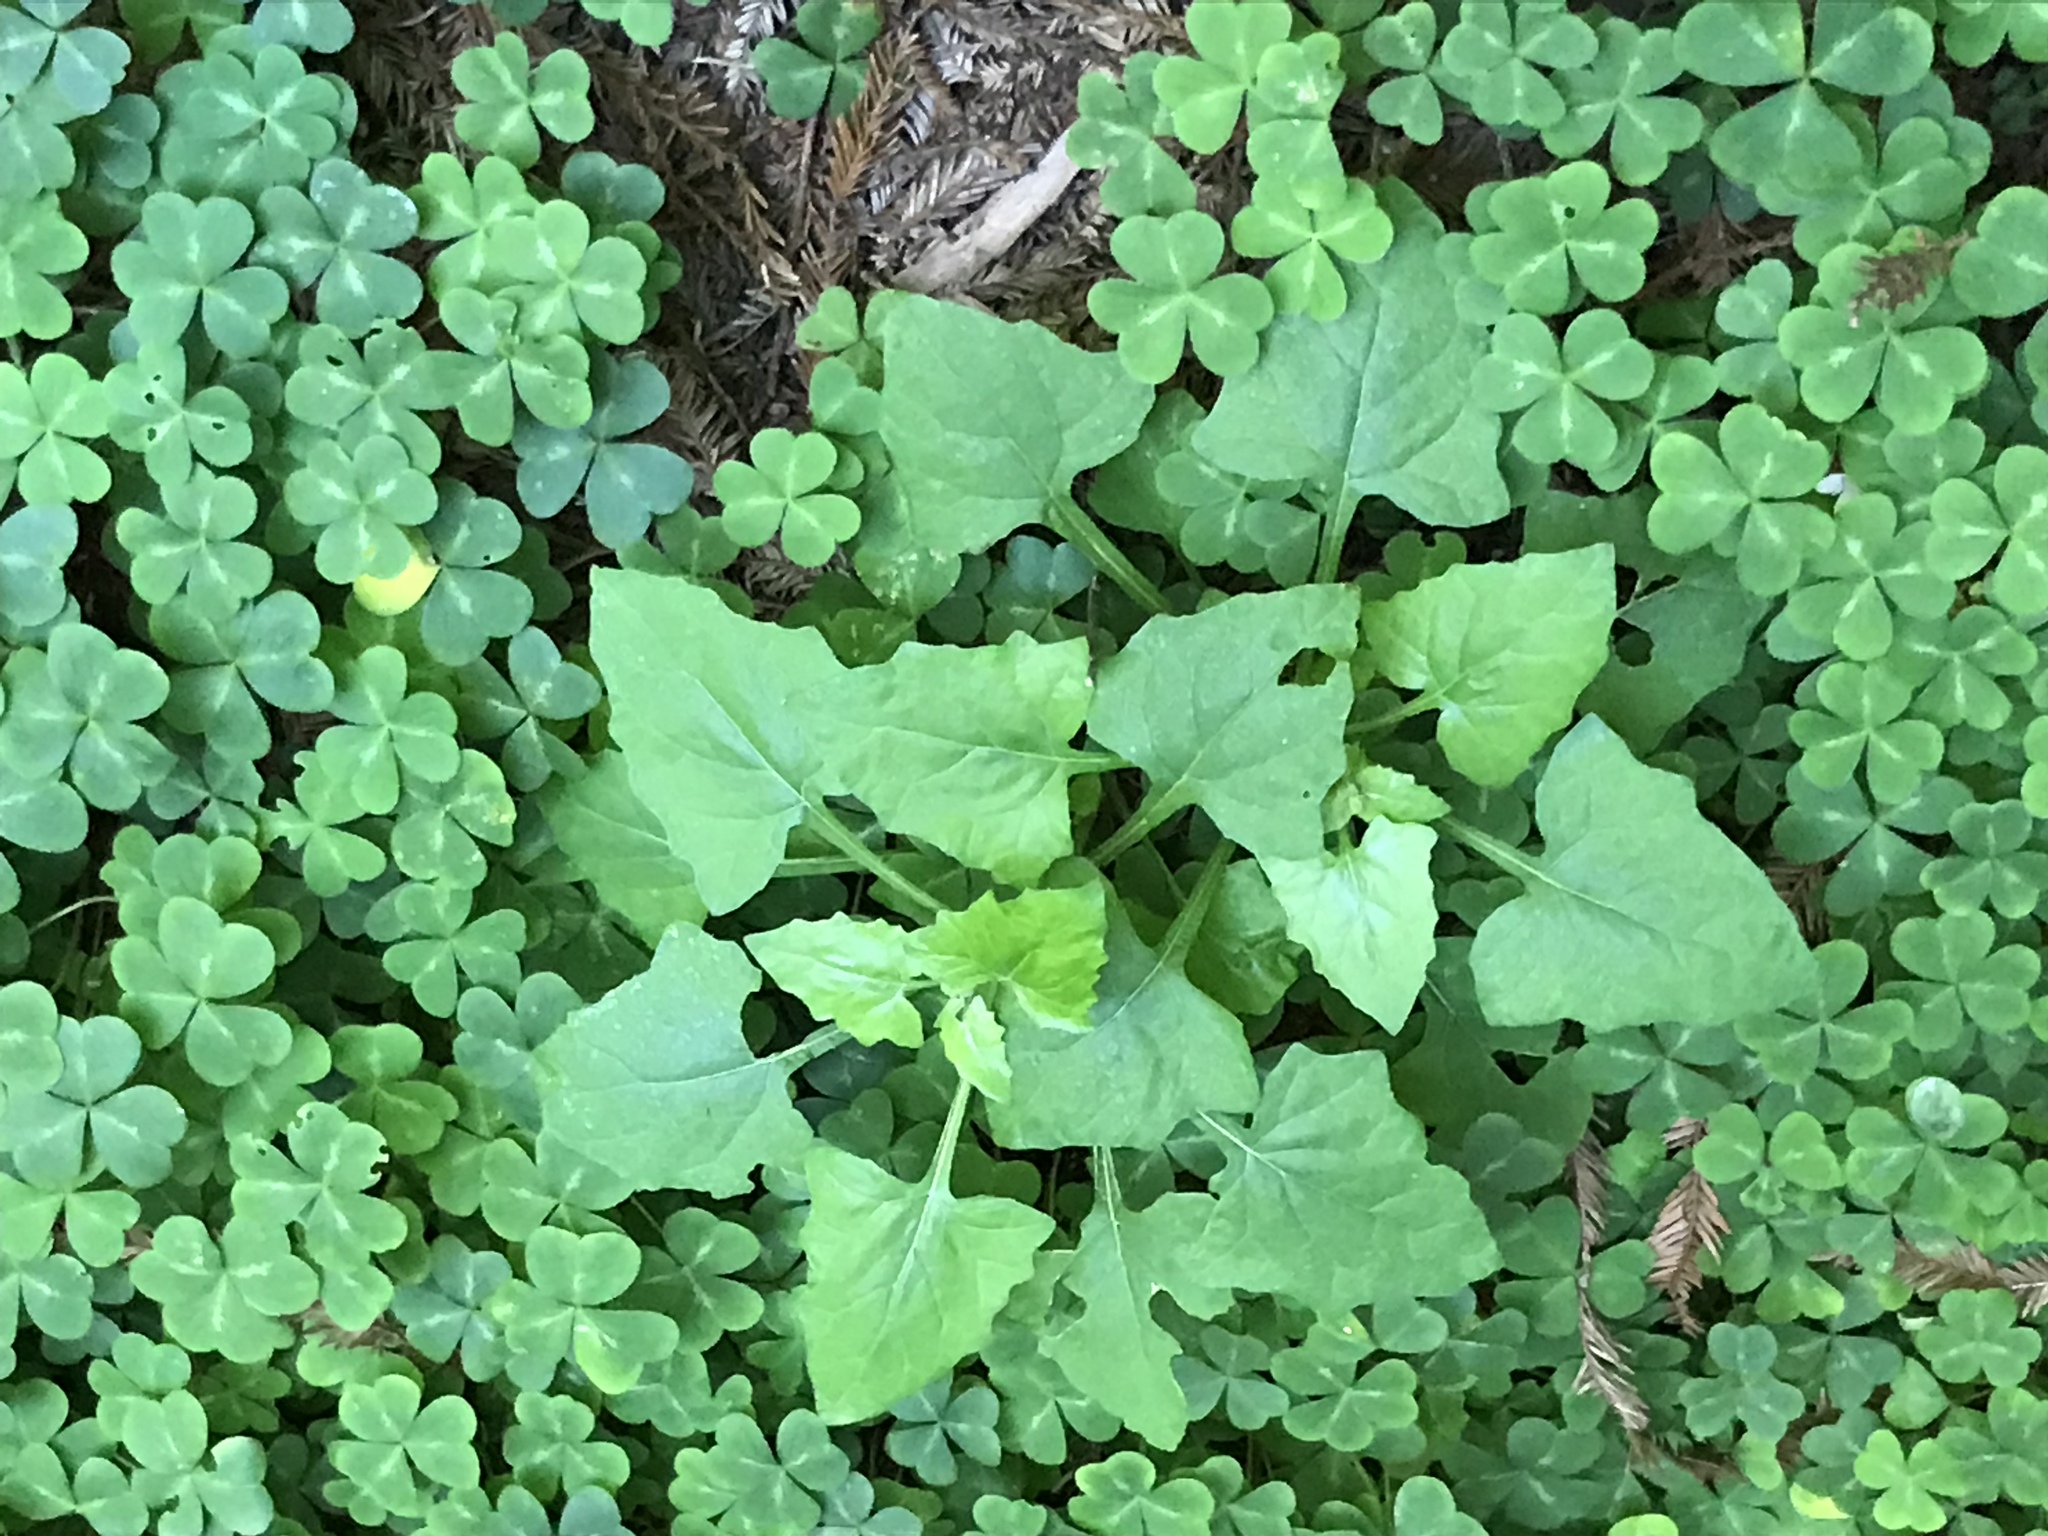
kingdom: Plantae
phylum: Tracheophyta
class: Magnoliopsida
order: Asterales
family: Asteraceae
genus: Adenocaulon
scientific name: Adenocaulon bicolor
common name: Trailplant
